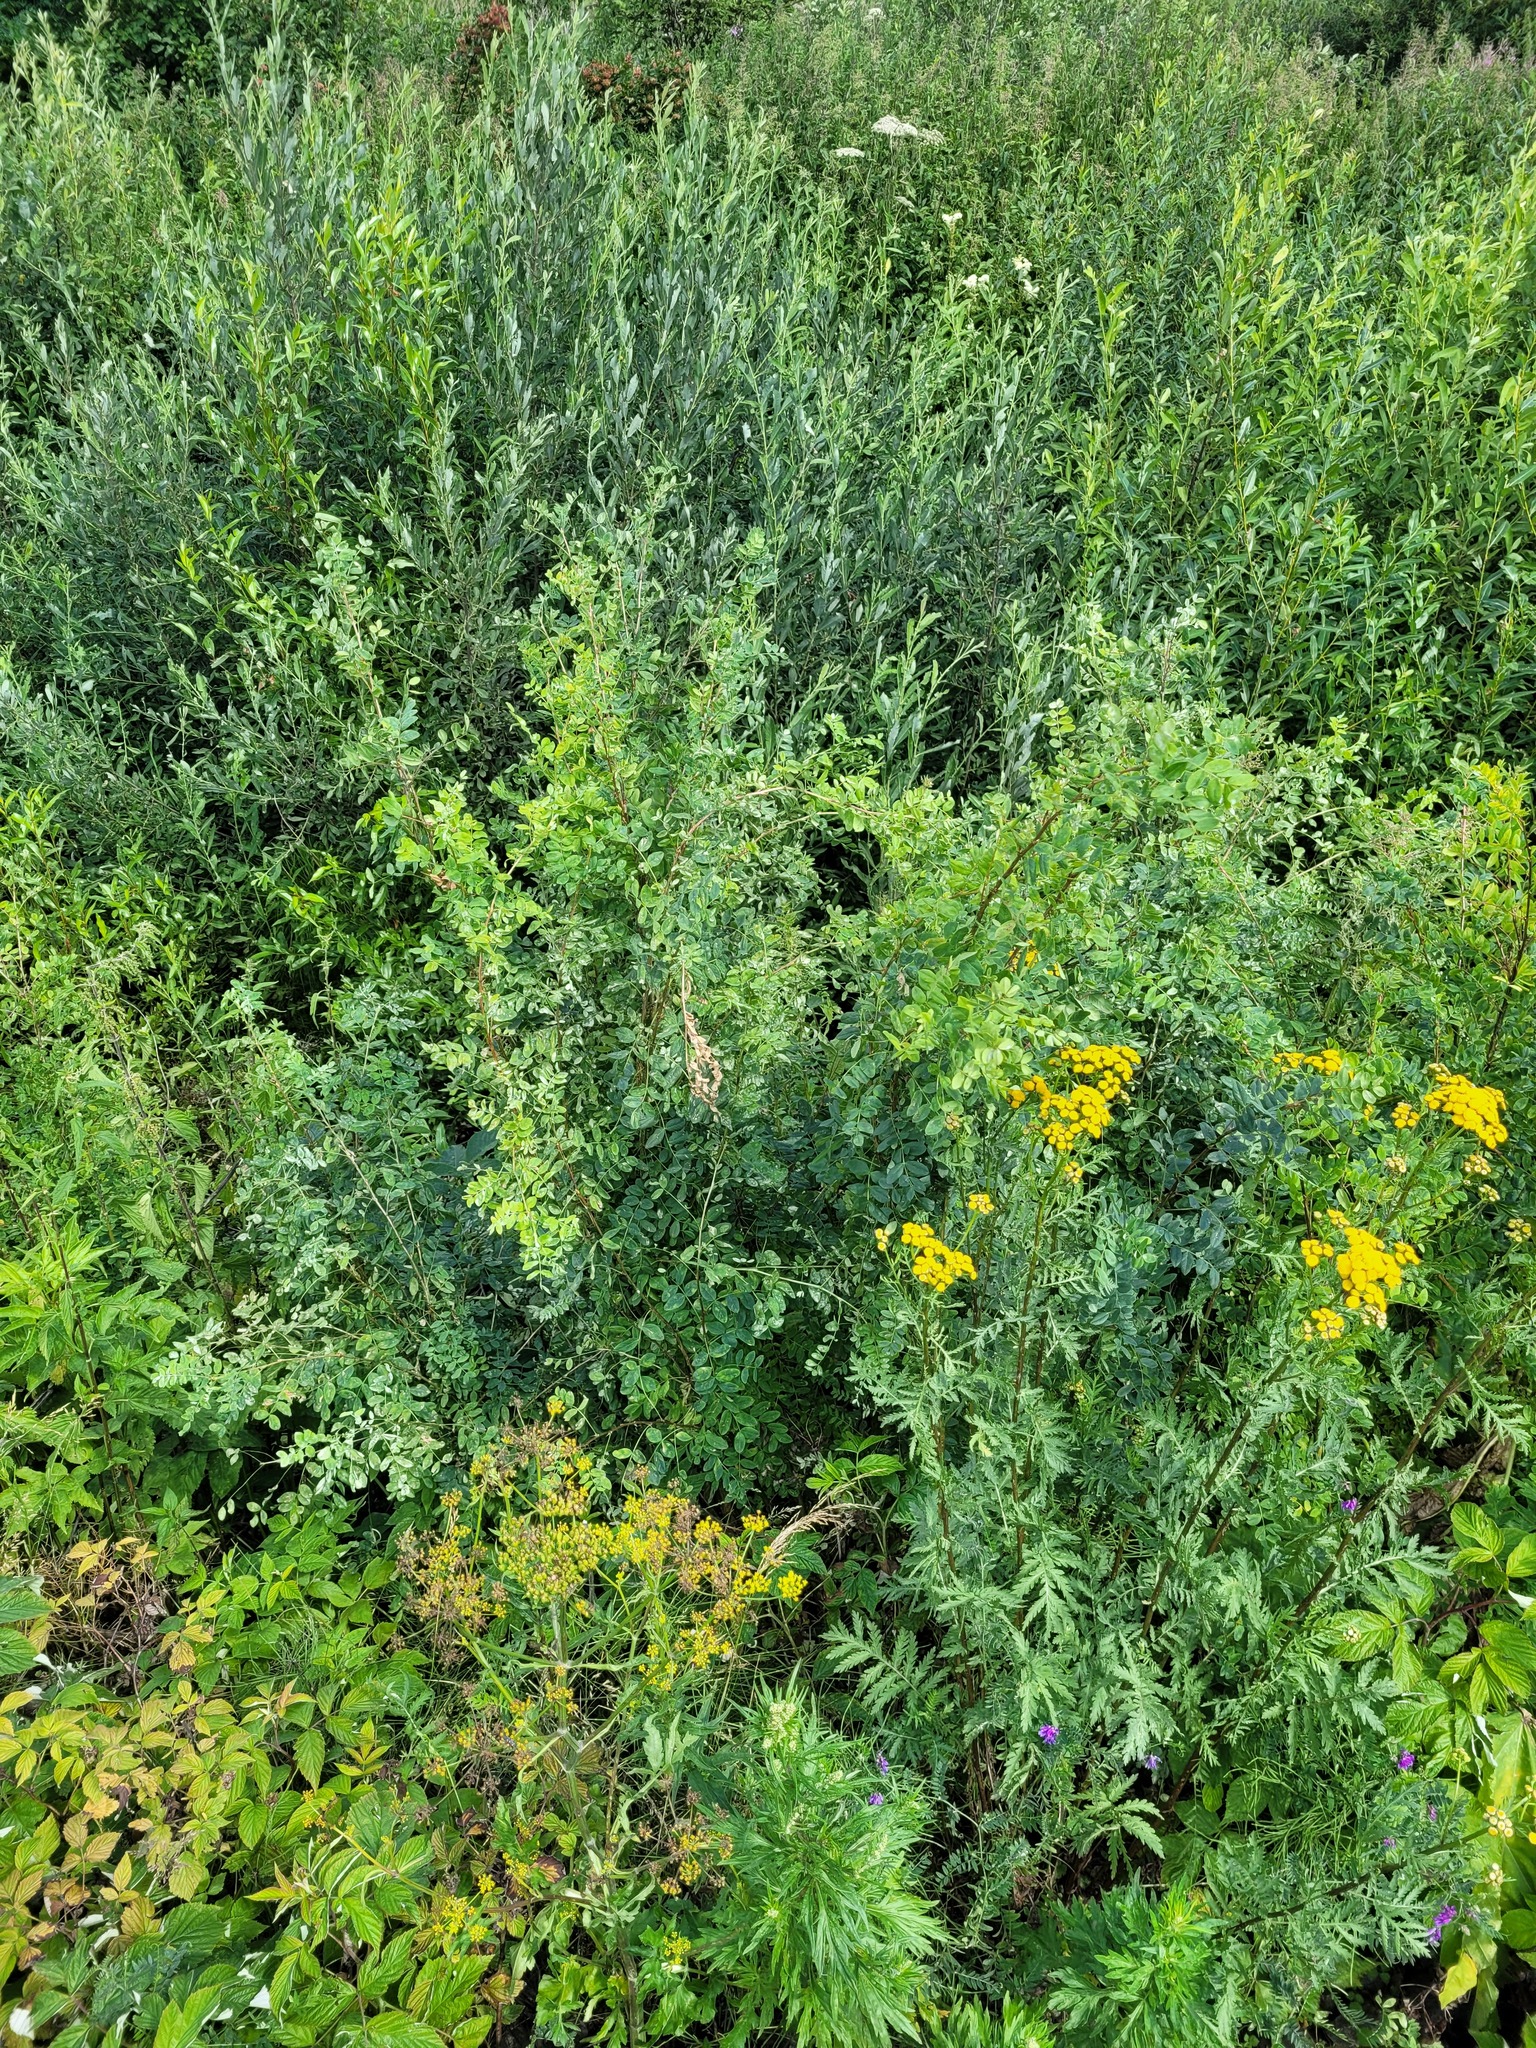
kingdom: Plantae
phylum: Tracheophyta
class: Magnoliopsida
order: Fabales
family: Fabaceae
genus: Caragana
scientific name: Caragana arborescens
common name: Siberian peashrub
